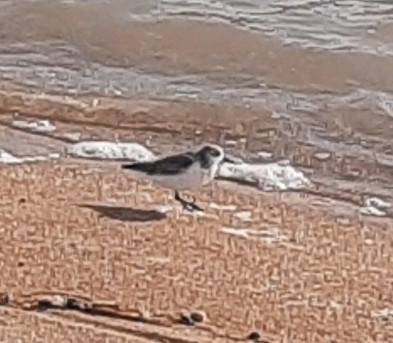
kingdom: Animalia
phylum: Chordata
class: Aves
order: Charadriiformes
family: Scolopacidae
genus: Calidris
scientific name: Calidris alba
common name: Sanderling
